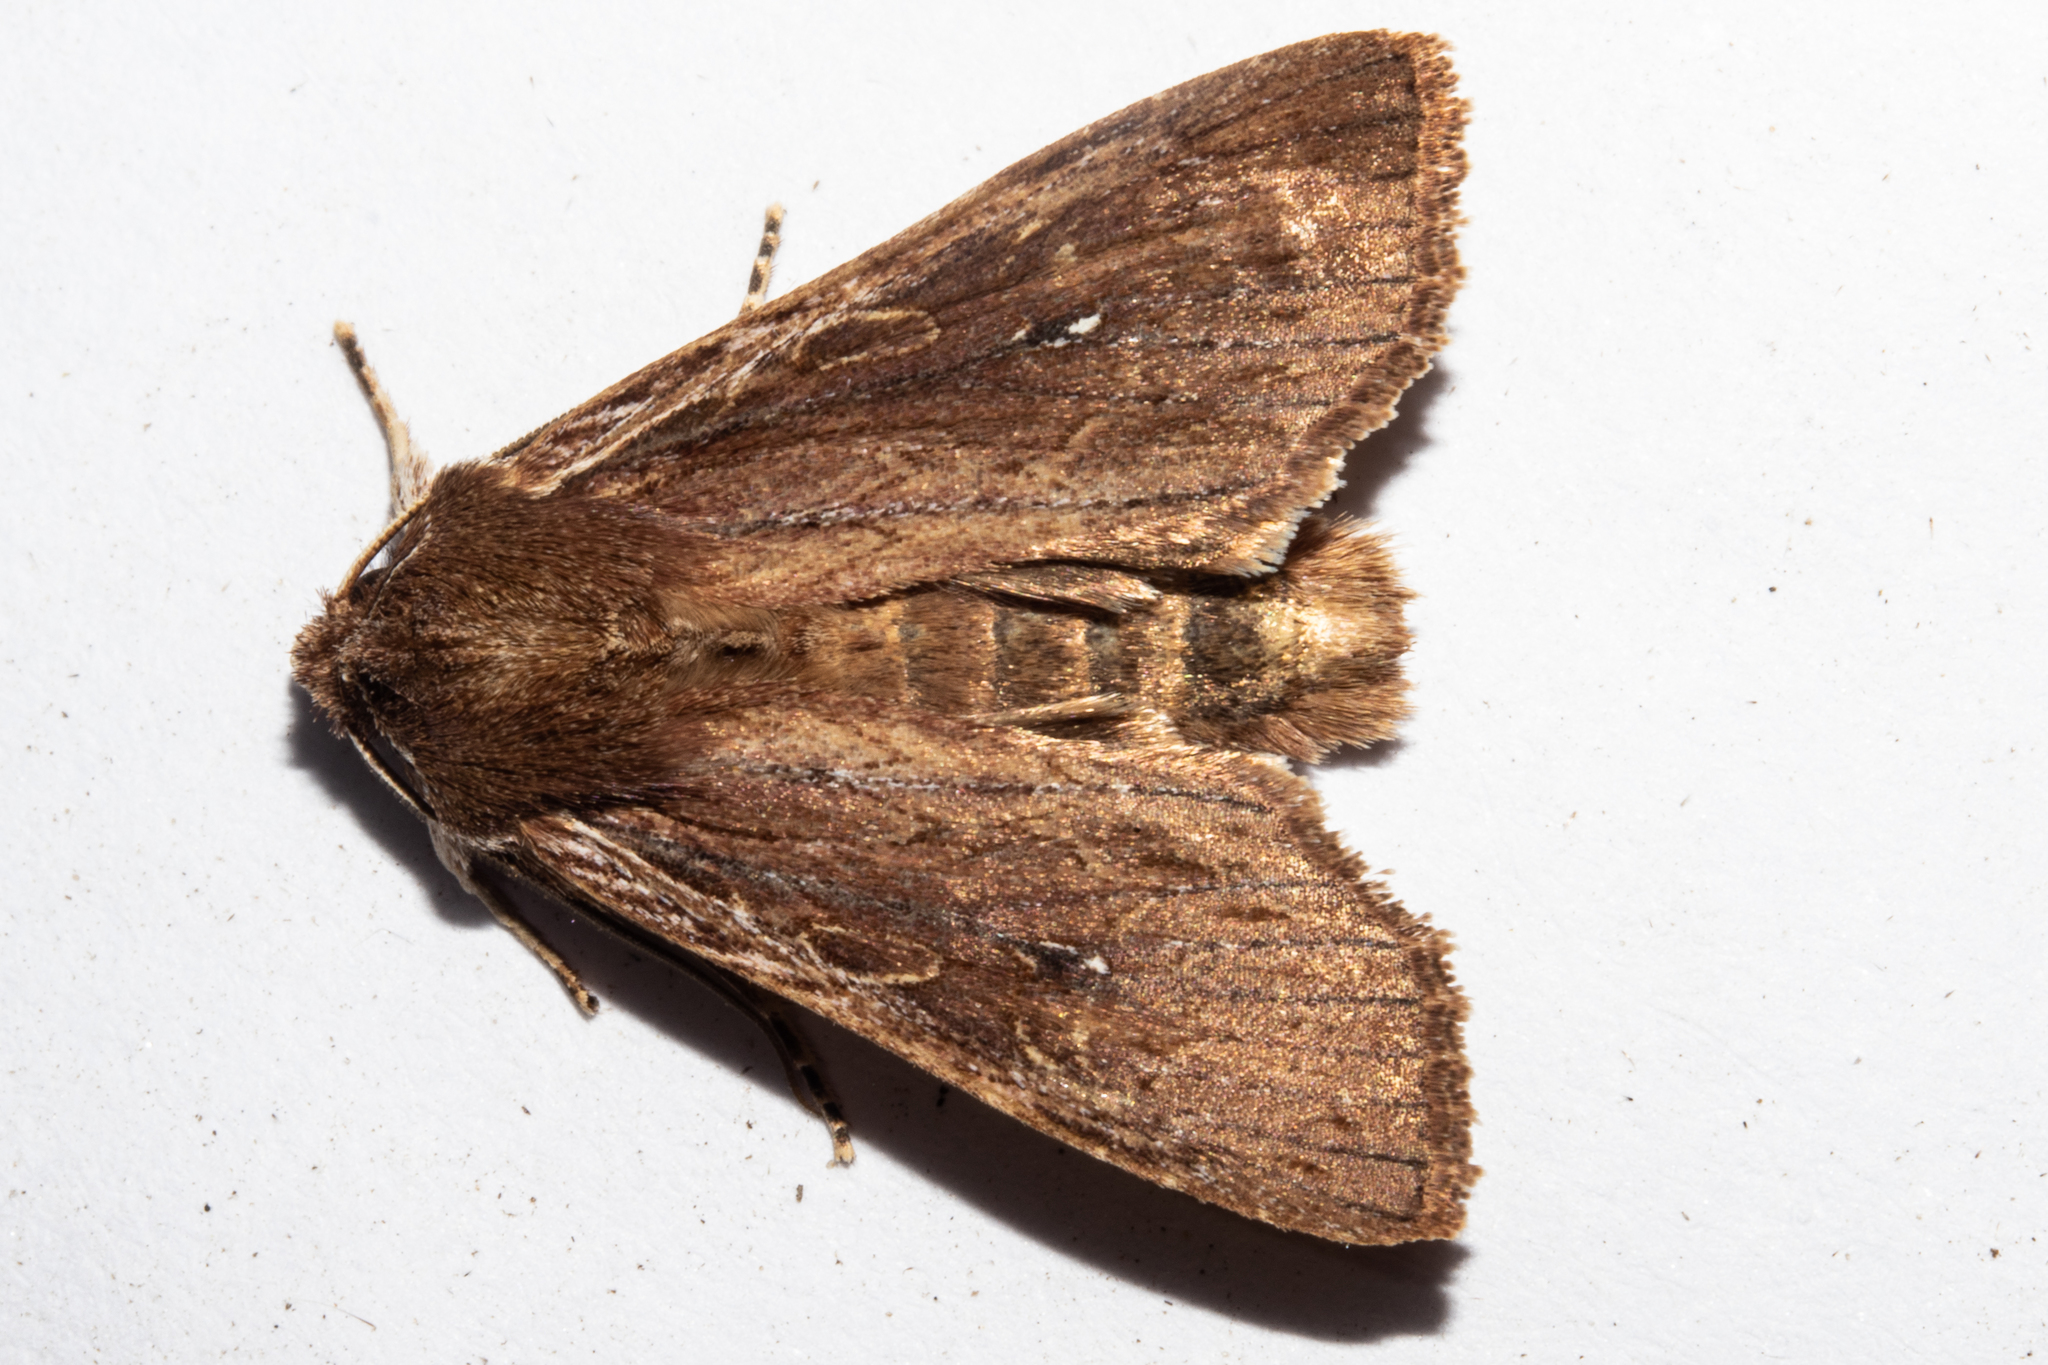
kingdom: Animalia
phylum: Arthropoda
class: Insecta
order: Lepidoptera
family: Noctuidae
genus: Ichneutica
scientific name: Ichneutica
